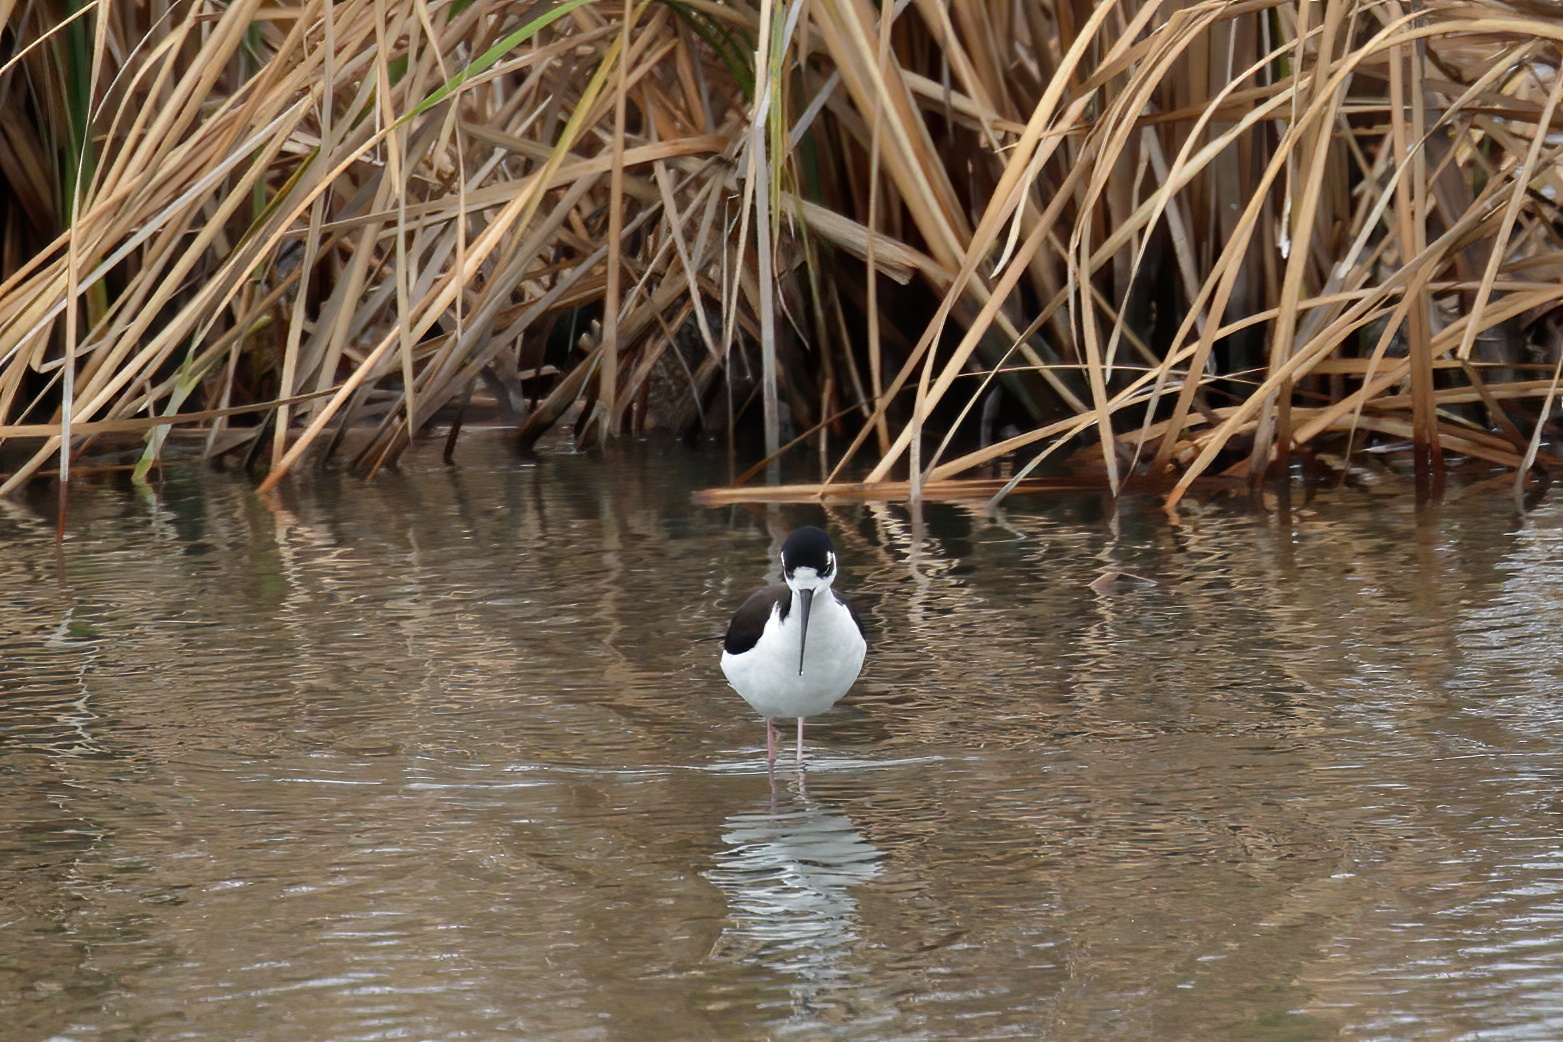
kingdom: Animalia
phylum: Chordata
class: Aves
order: Charadriiformes
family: Recurvirostridae
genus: Himantopus
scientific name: Himantopus mexicanus
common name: Black-necked stilt
